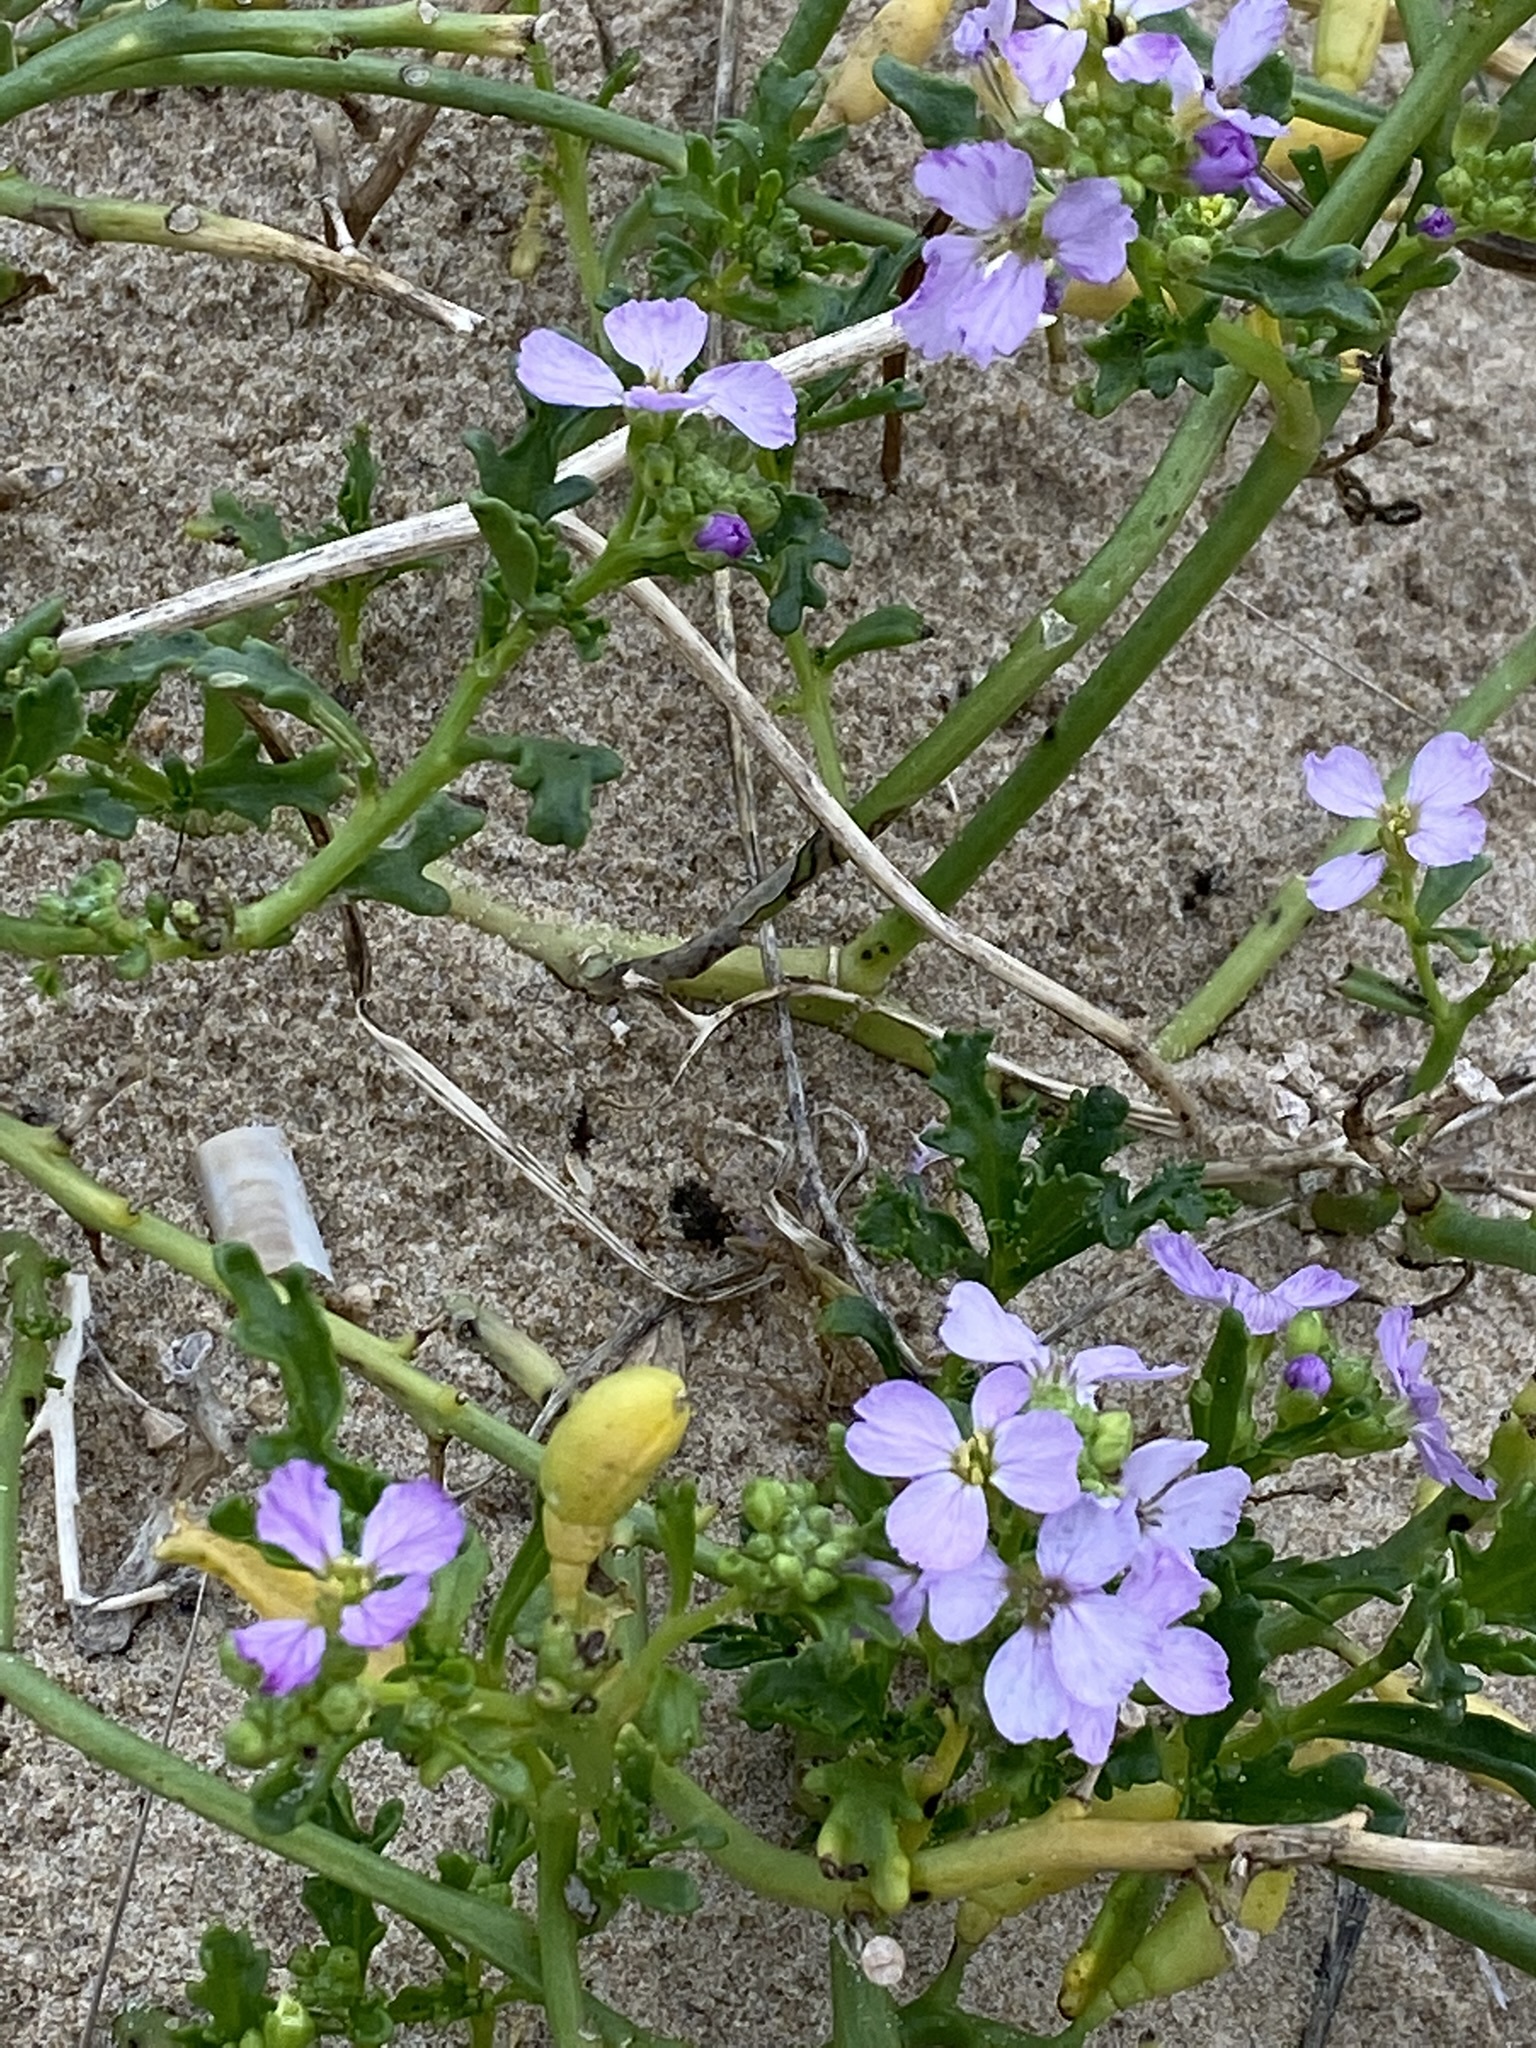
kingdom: Plantae
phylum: Tracheophyta
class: Magnoliopsida
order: Brassicales
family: Brassicaceae
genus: Cakile
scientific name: Cakile maritima
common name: Sea rocket
